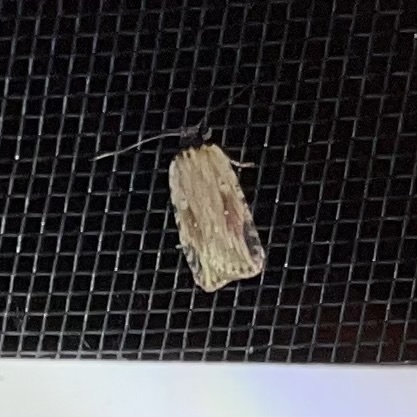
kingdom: Animalia
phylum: Arthropoda
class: Insecta
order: Lepidoptera
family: Depressariidae
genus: Agonopterix
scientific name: Agonopterix atrodorsella
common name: Beggartick leaffolder
